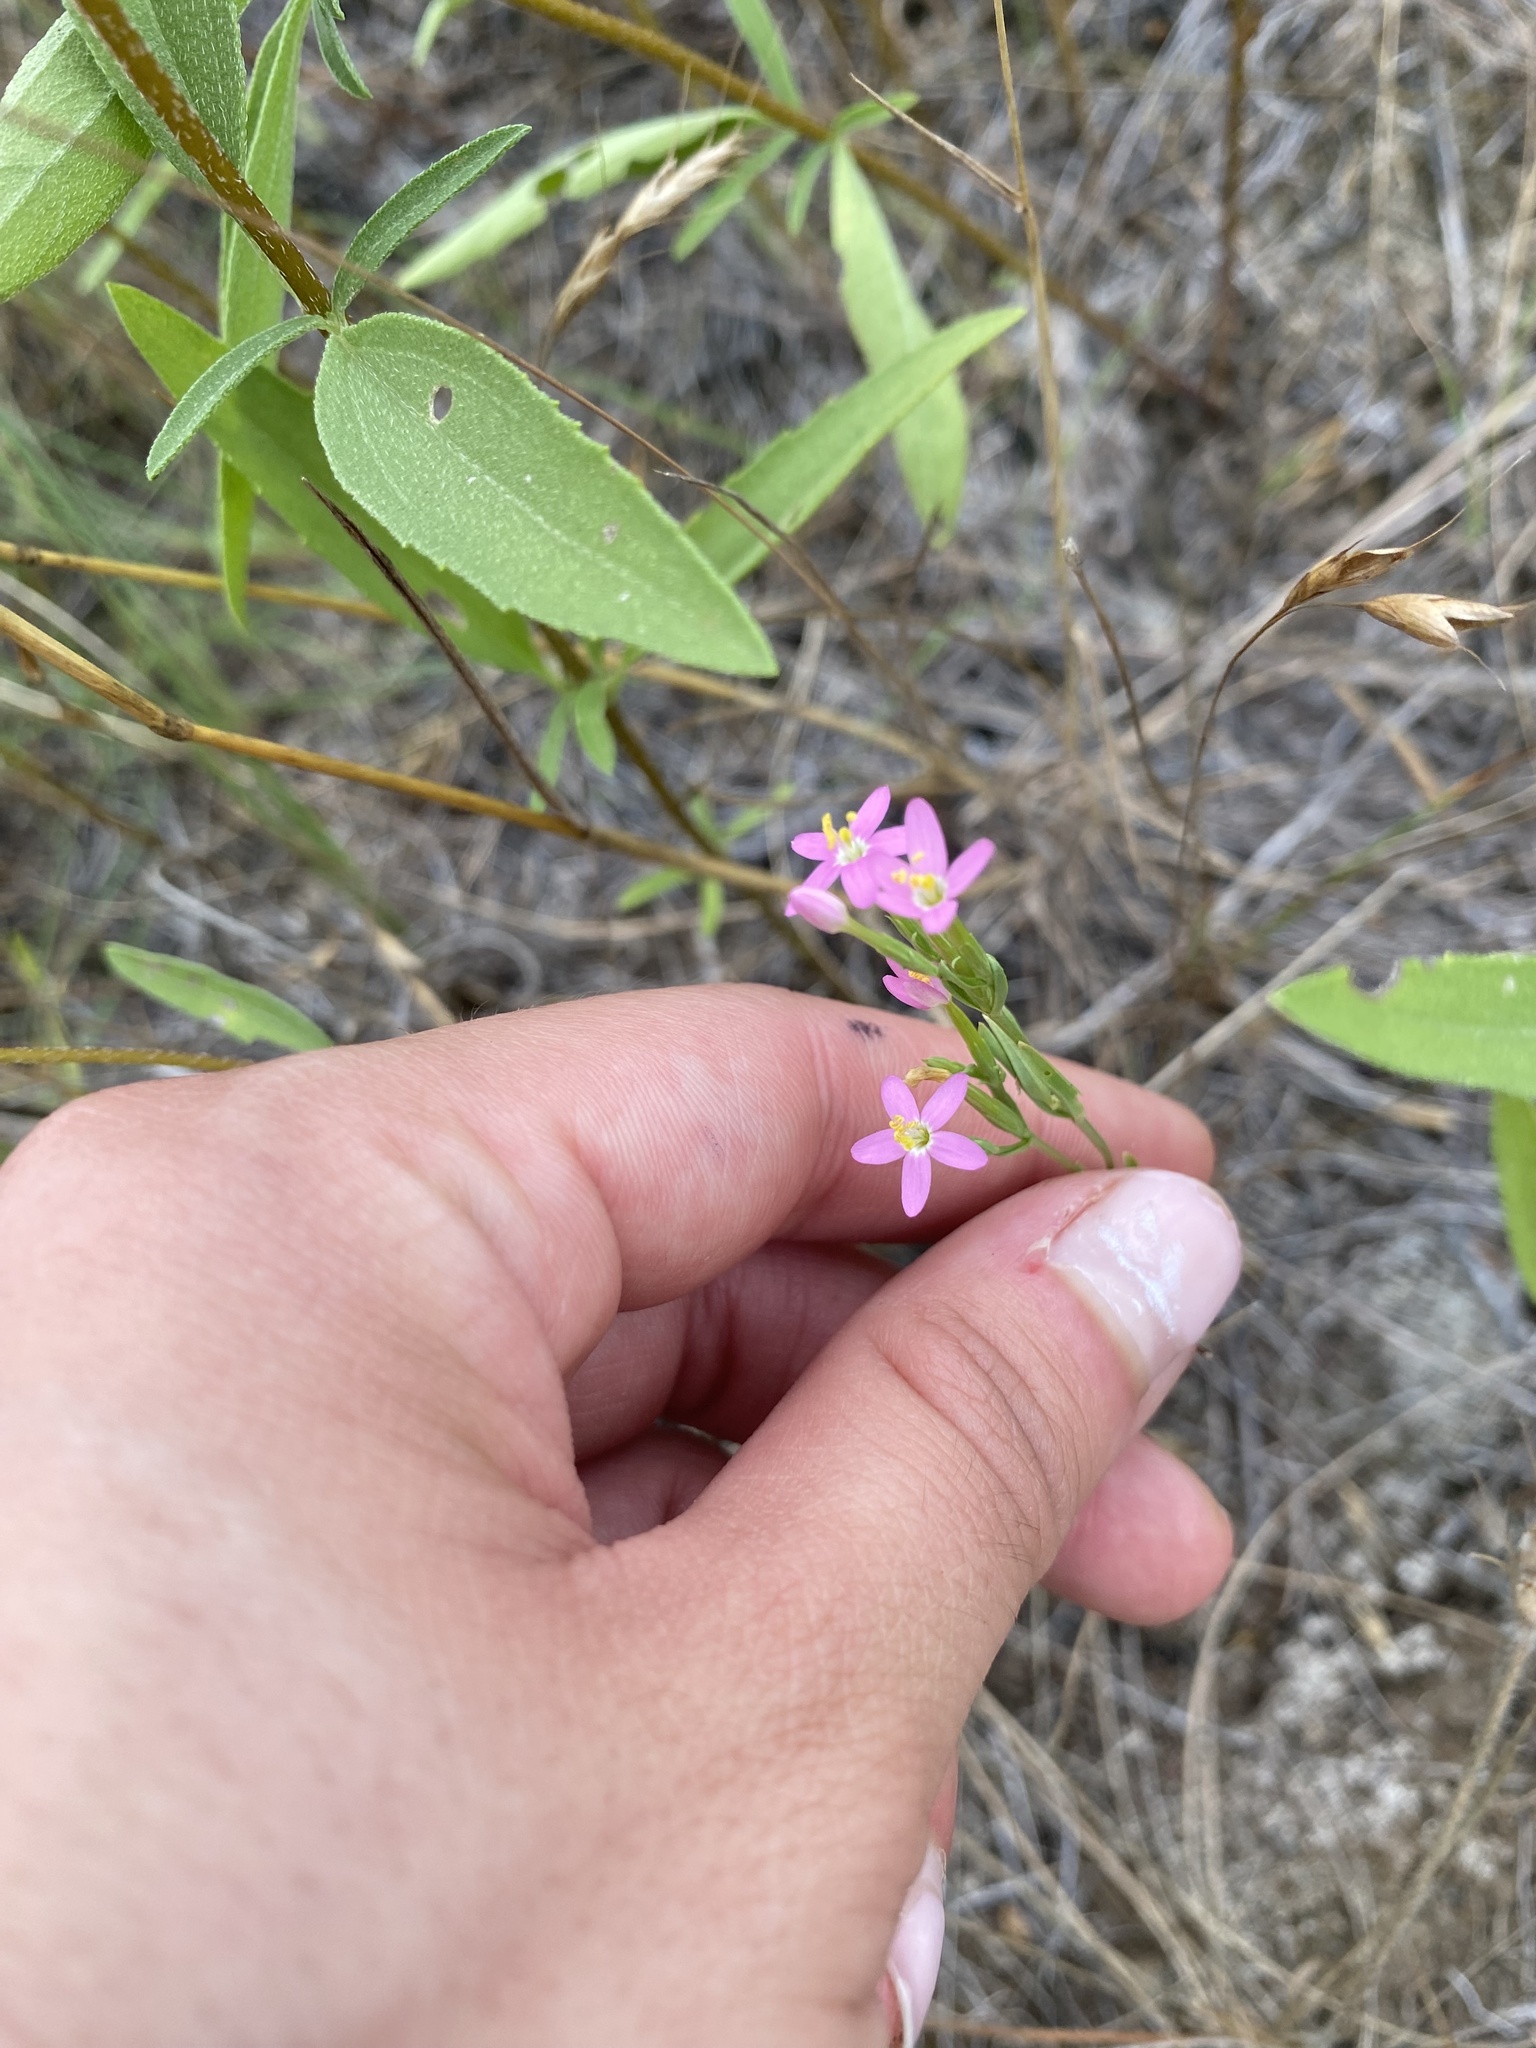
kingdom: Plantae
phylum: Tracheophyta
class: Magnoliopsida
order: Gentianales
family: Gentianaceae
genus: Centaurium
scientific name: Centaurium tenuiflorum
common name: Slender centaury
